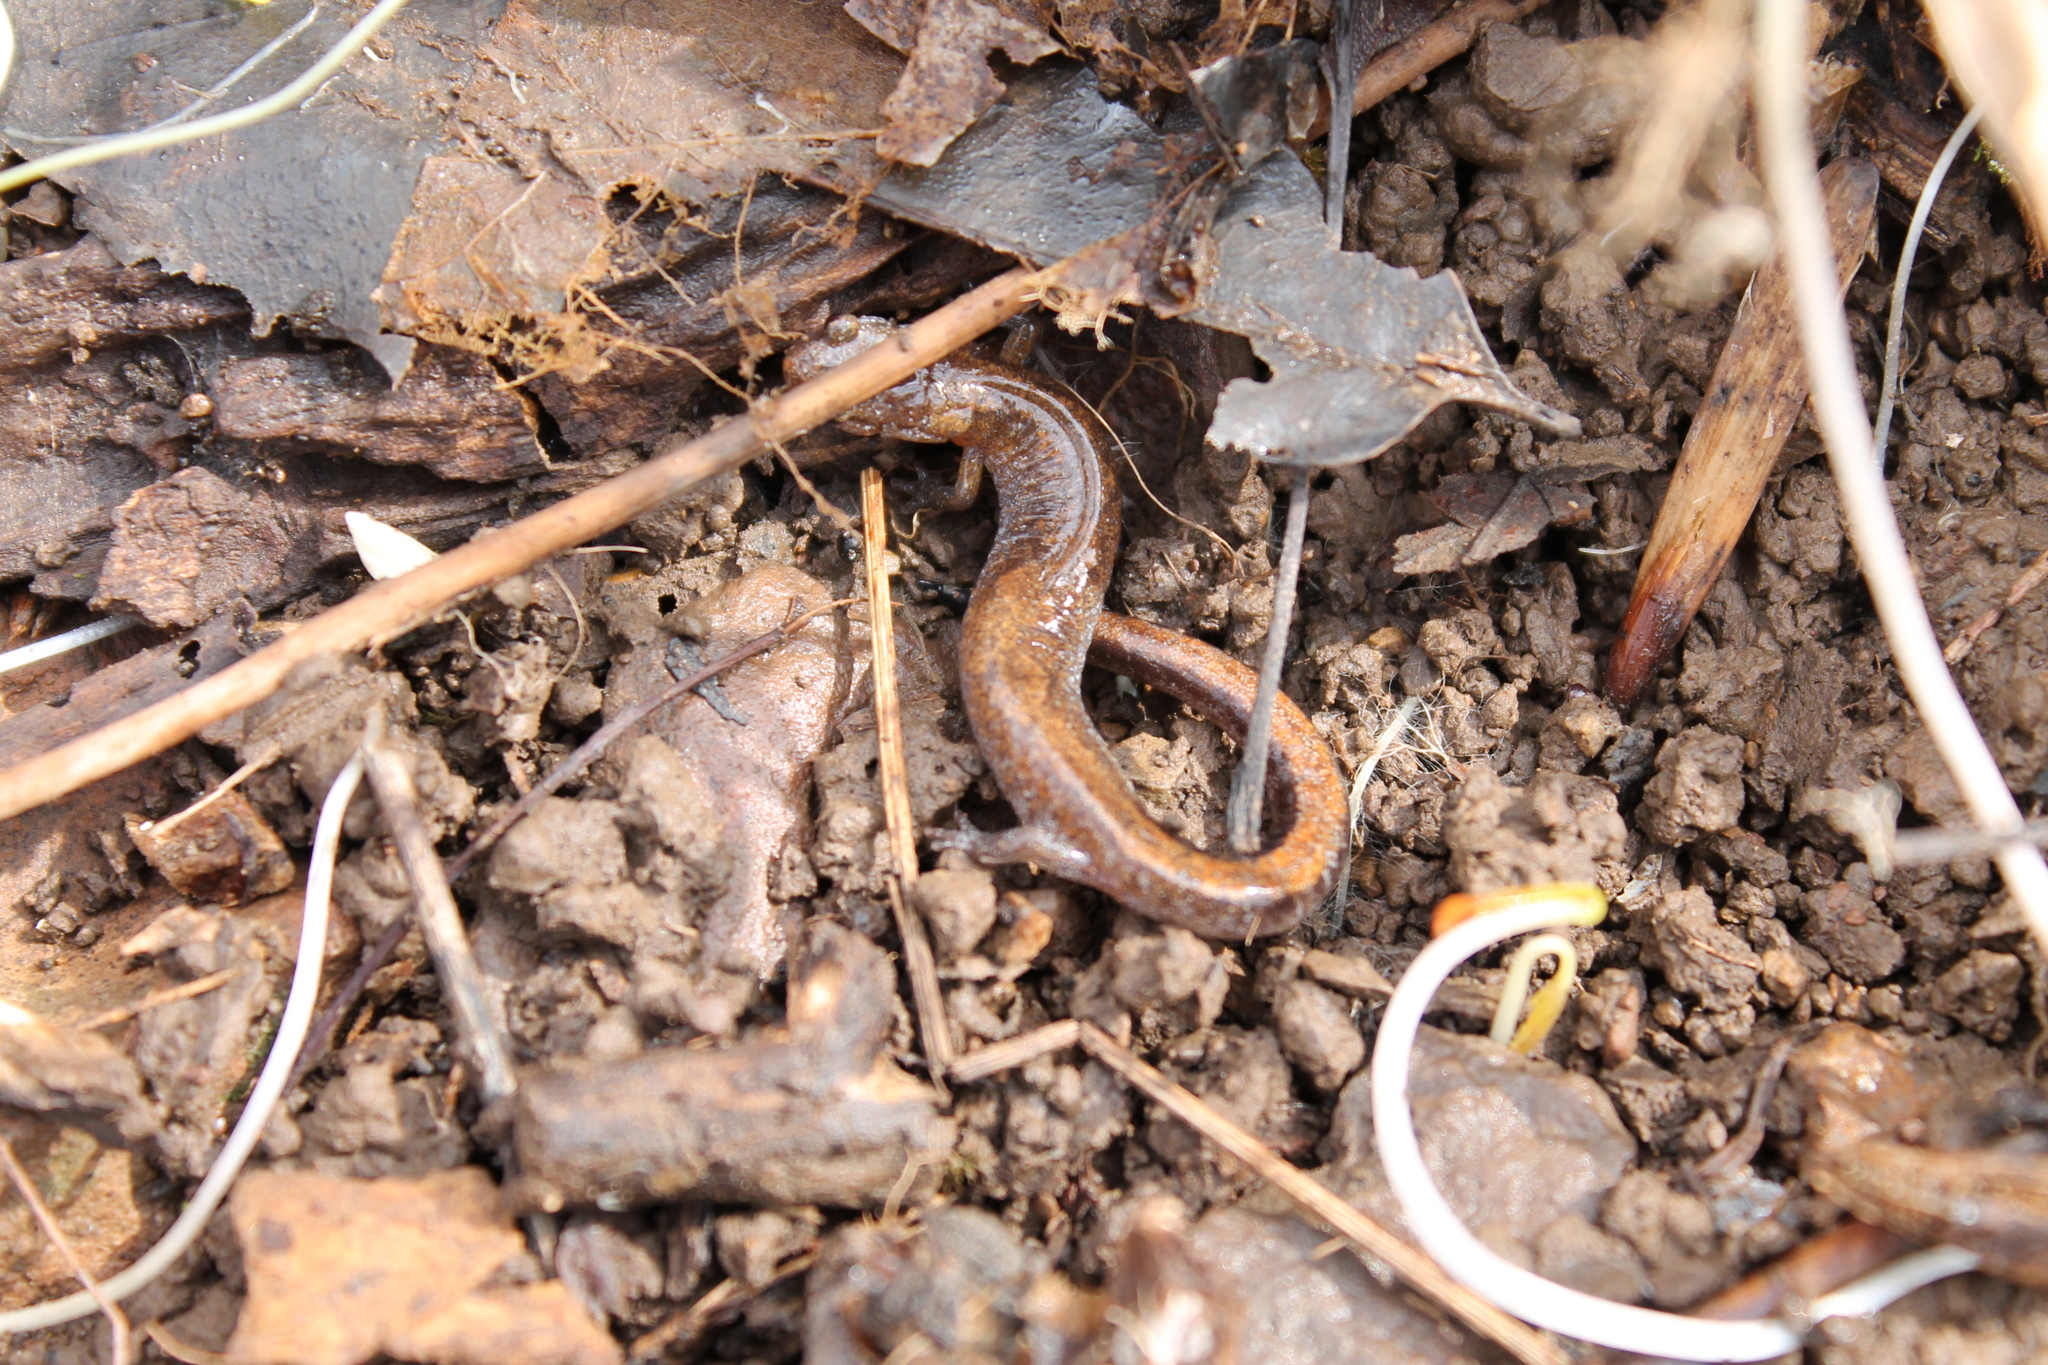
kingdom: Animalia
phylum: Chordata
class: Amphibia
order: Caudata
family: Plethodontidae
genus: Plethodon
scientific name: Plethodon dorsalis
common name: Northern zigzag salamander
